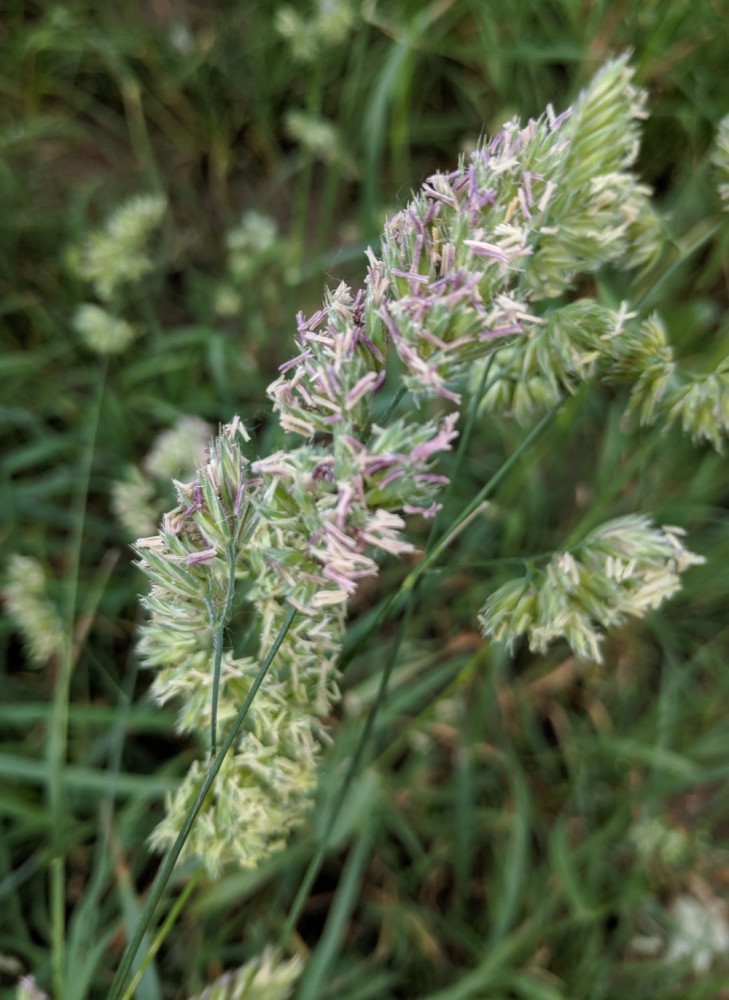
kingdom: Plantae
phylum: Tracheophyta
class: Liliopsida
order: Poales
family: Poaceae
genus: Dactylis
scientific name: Dactylis glomerata
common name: Orchardgrass
